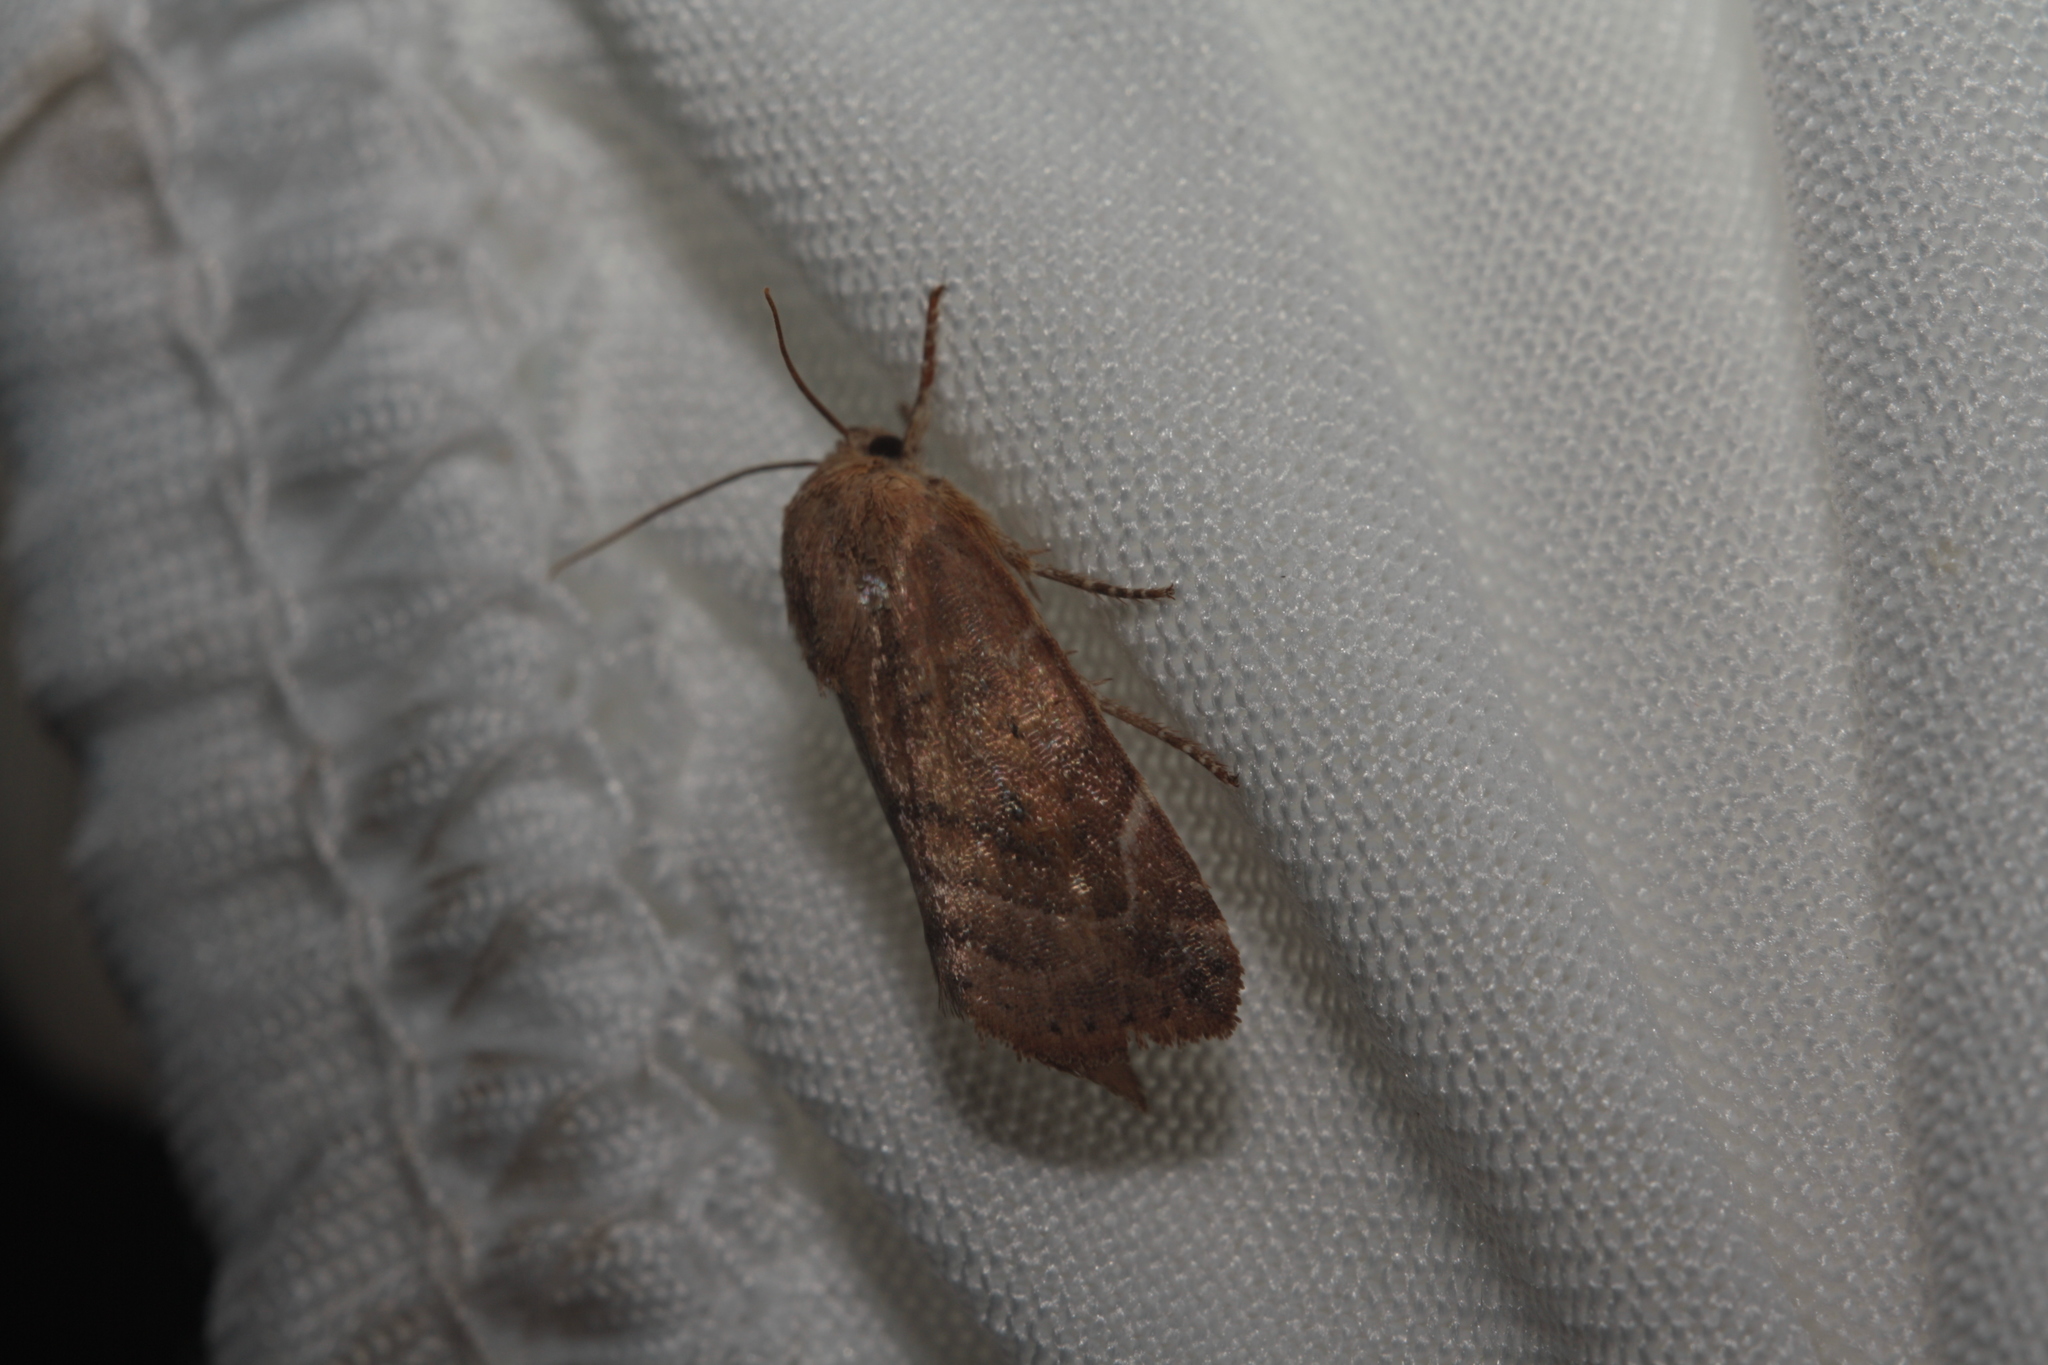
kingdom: Animalia
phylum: Arthropoda
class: Insecta
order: Lepidoptera
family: Noctuidae
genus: Cosmia
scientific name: Cosmia affinis
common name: Lesser-spotted pinion
